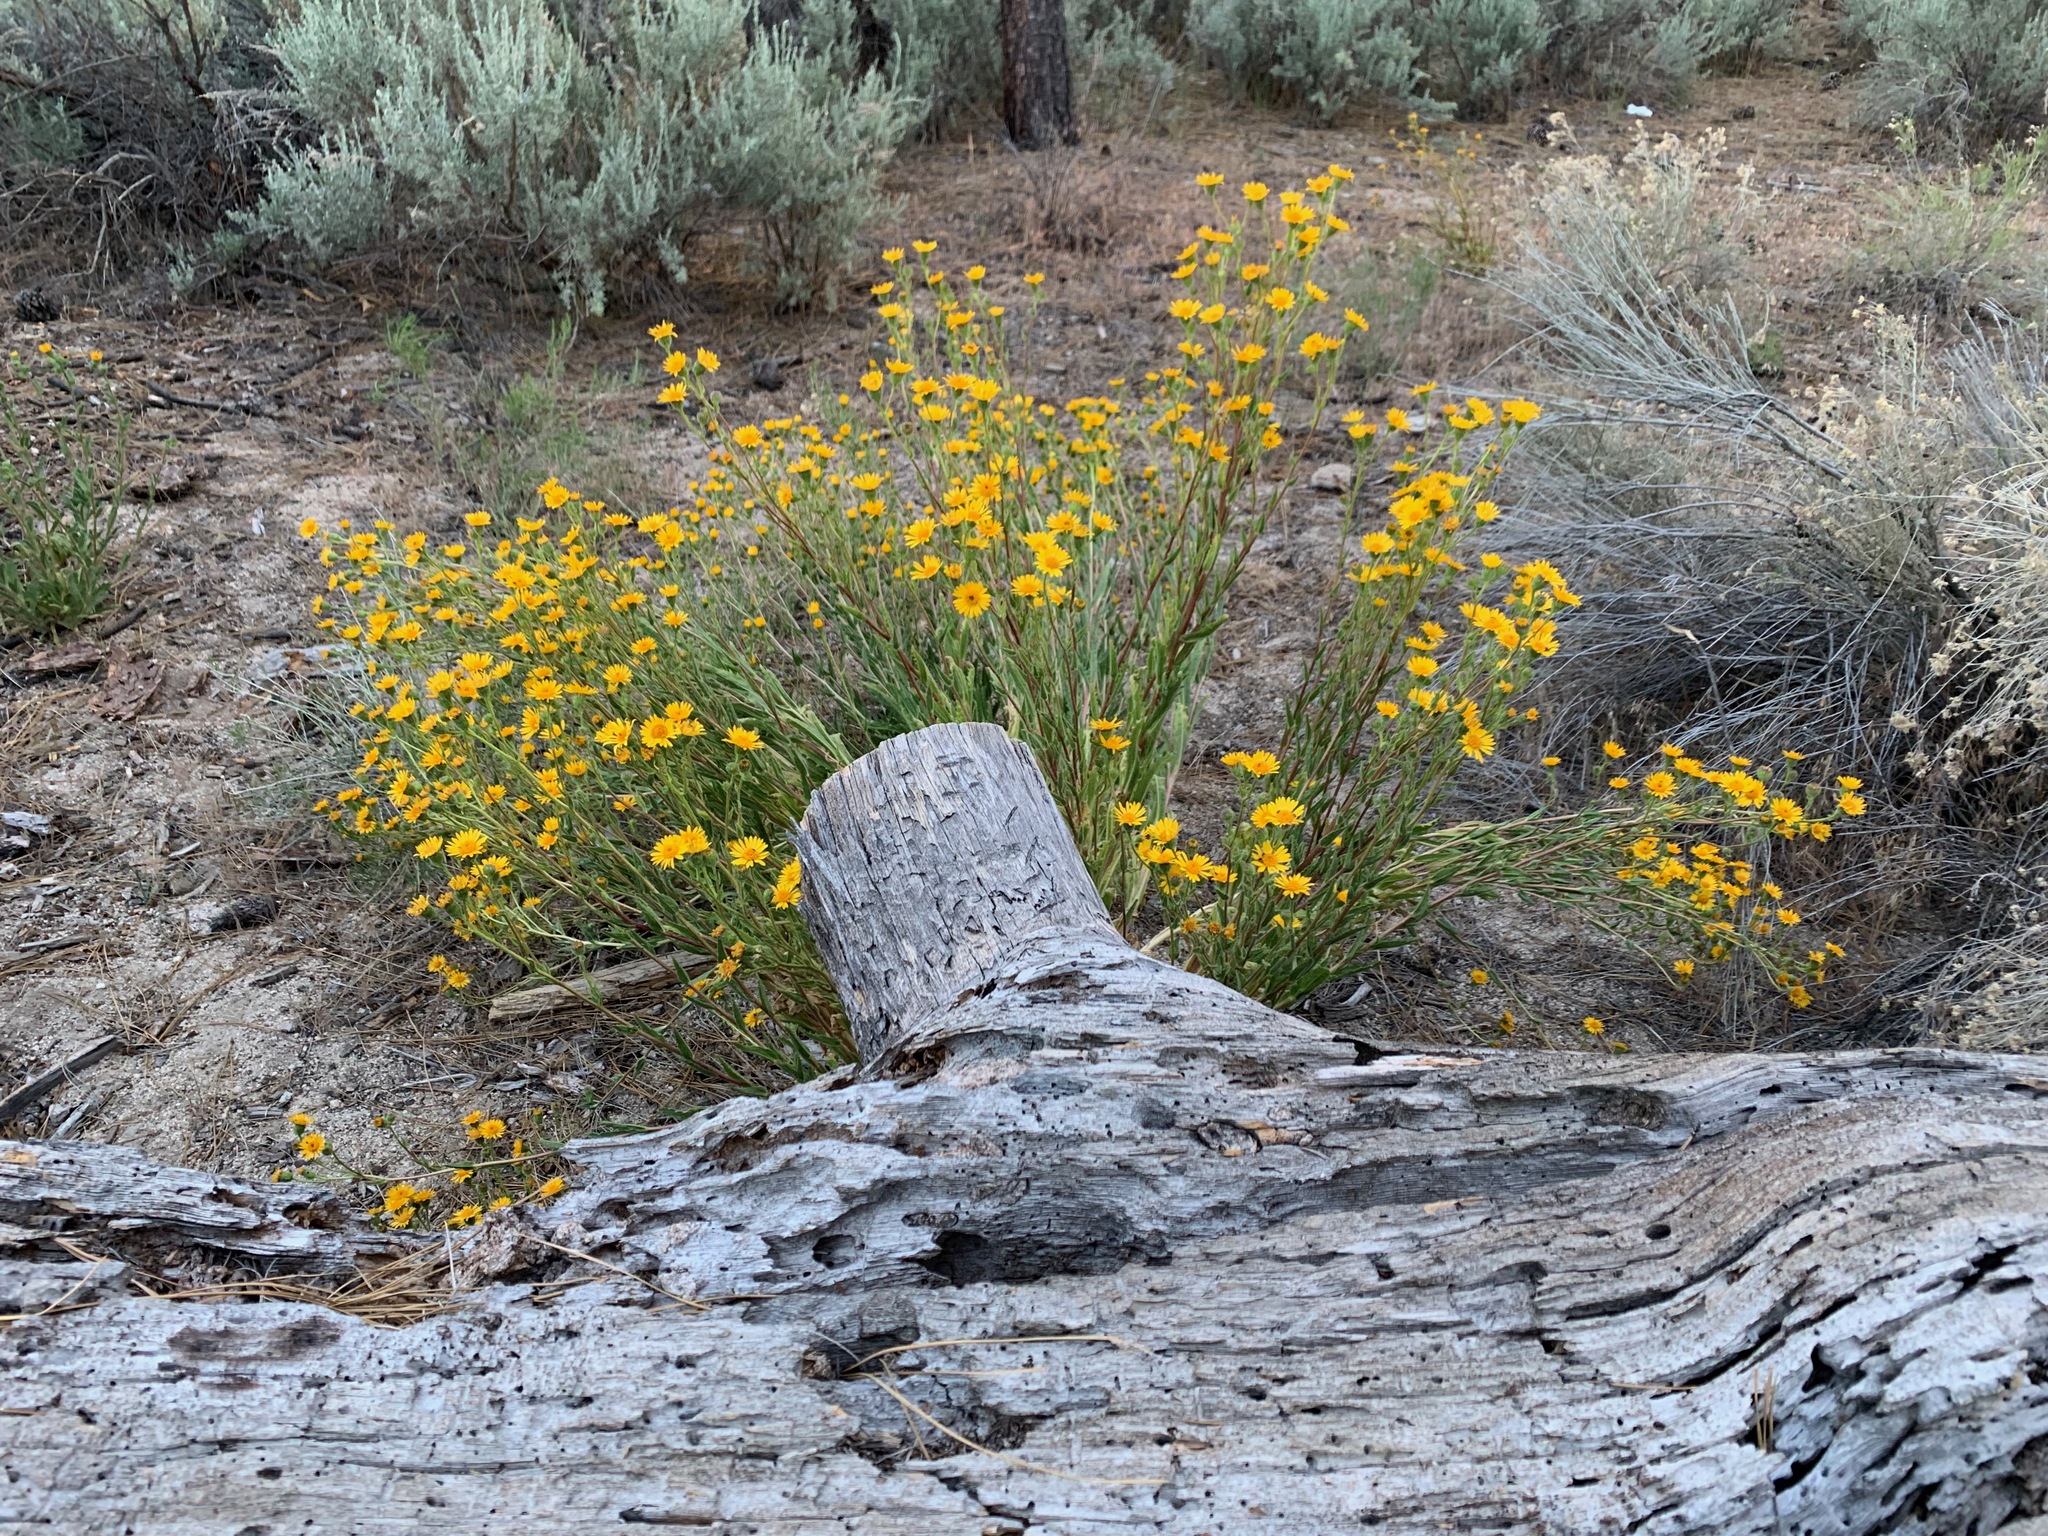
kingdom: Plantae
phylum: Tracheophyta
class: Magnoliopsida
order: Asterales
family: Asteraceae
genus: Hulsea
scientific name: Hulsea mexicana
